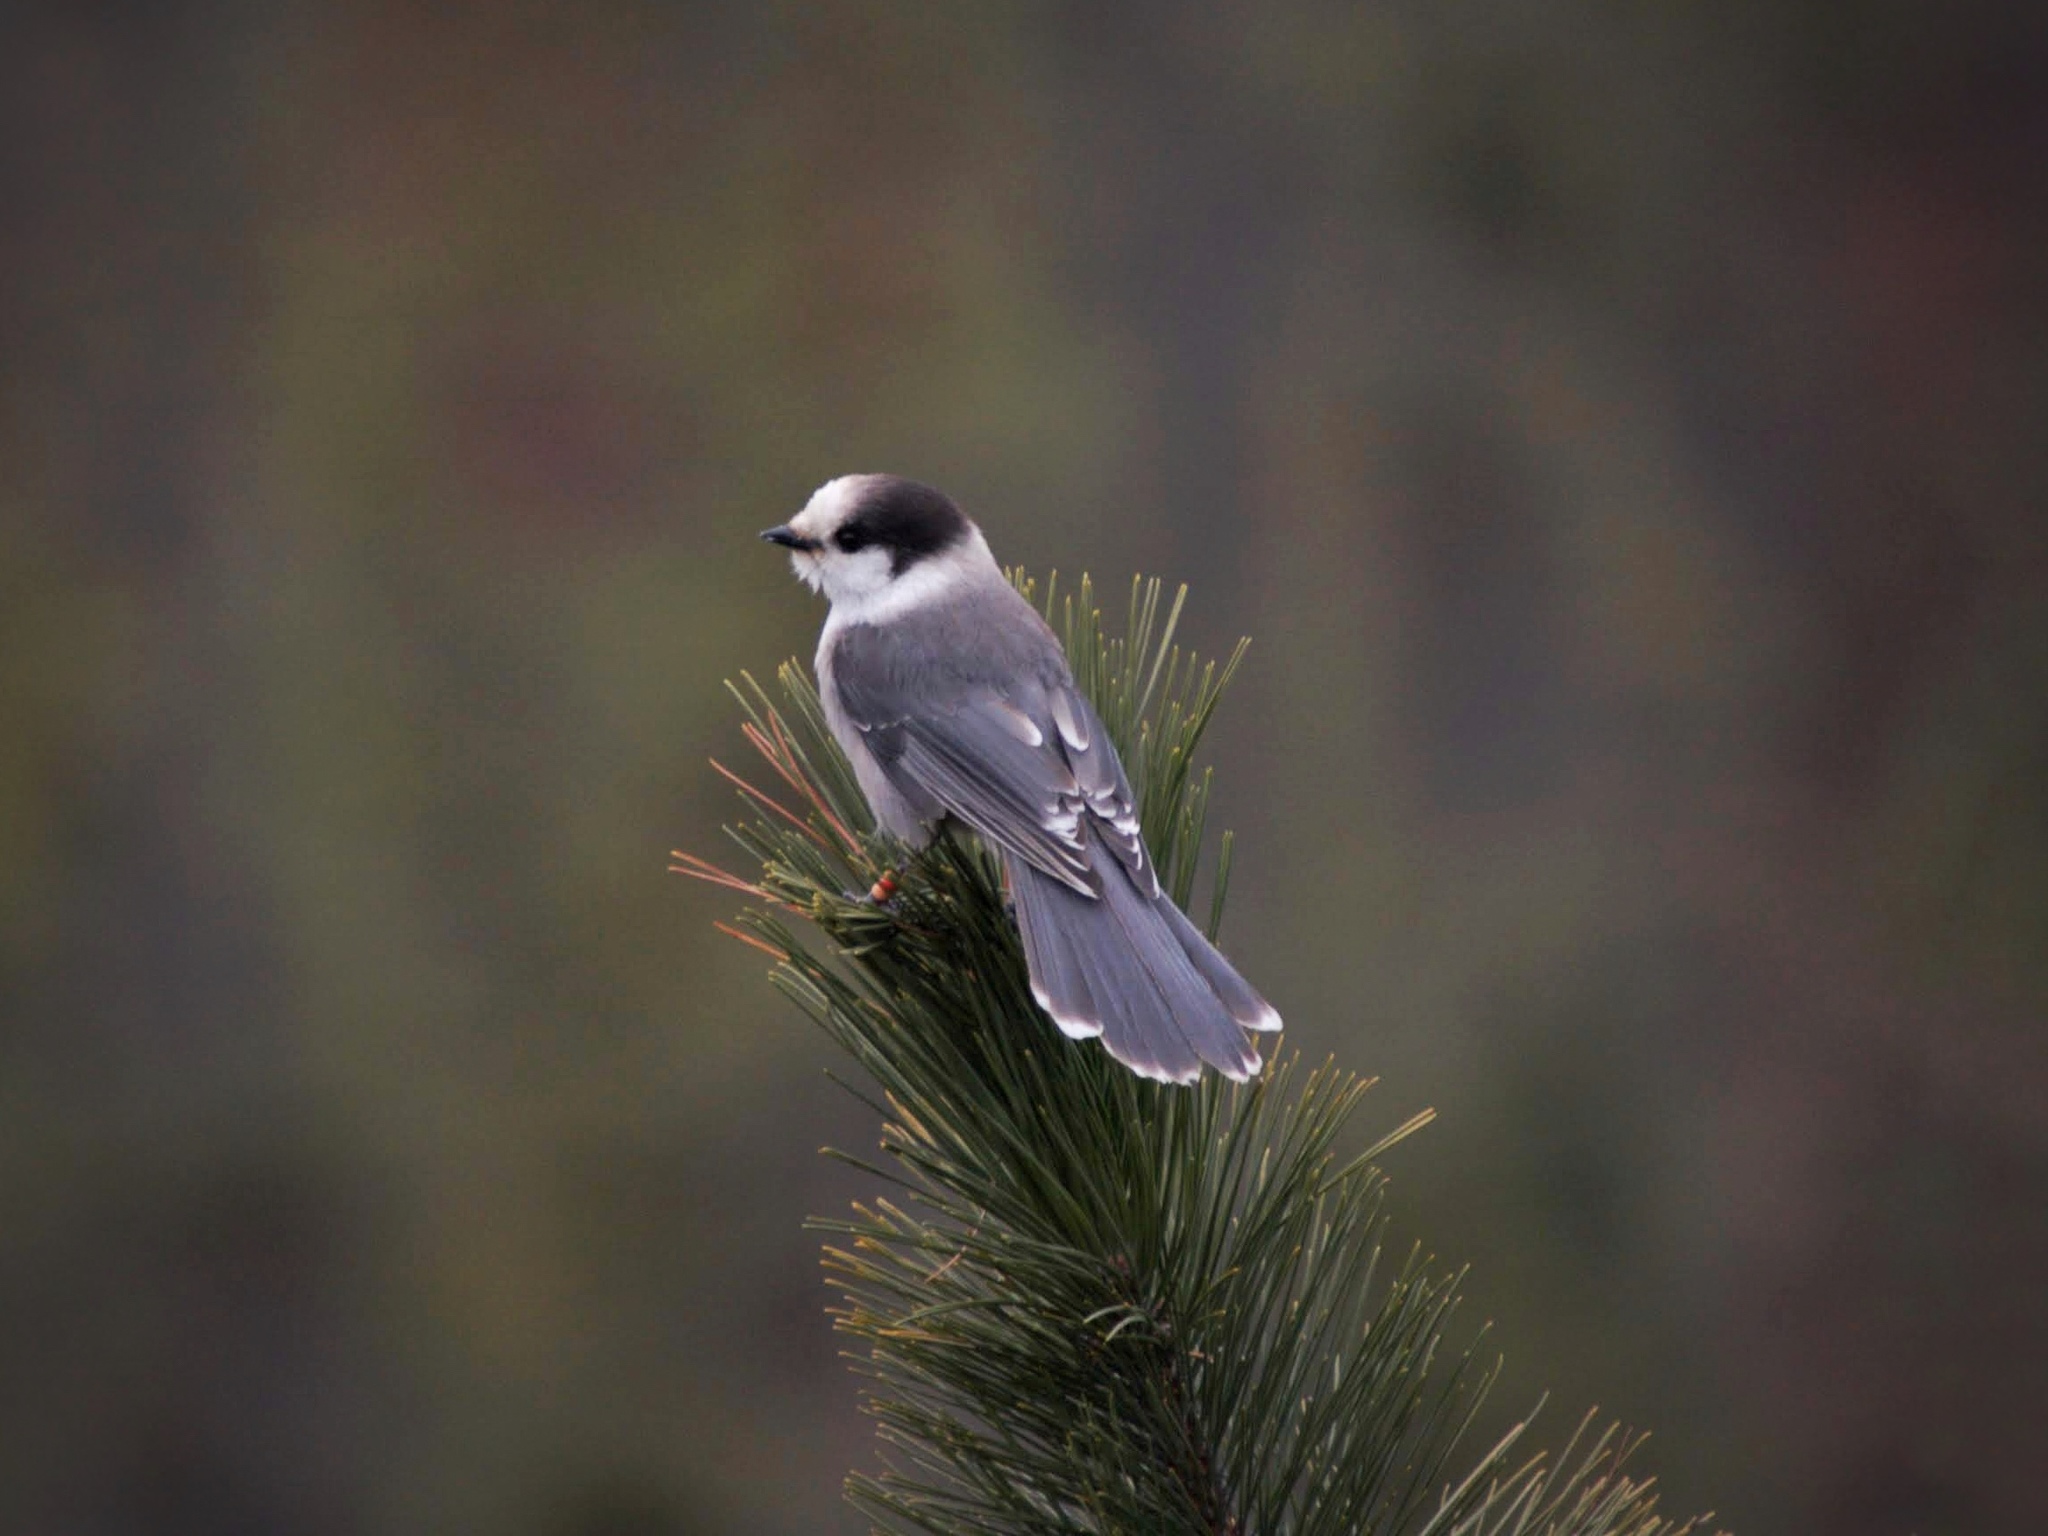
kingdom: Animalia
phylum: Chordata
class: Aves
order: Passeriformes
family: Corvidae
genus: Perisoreus
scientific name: Perisoreus canadensis
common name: Gray jay
